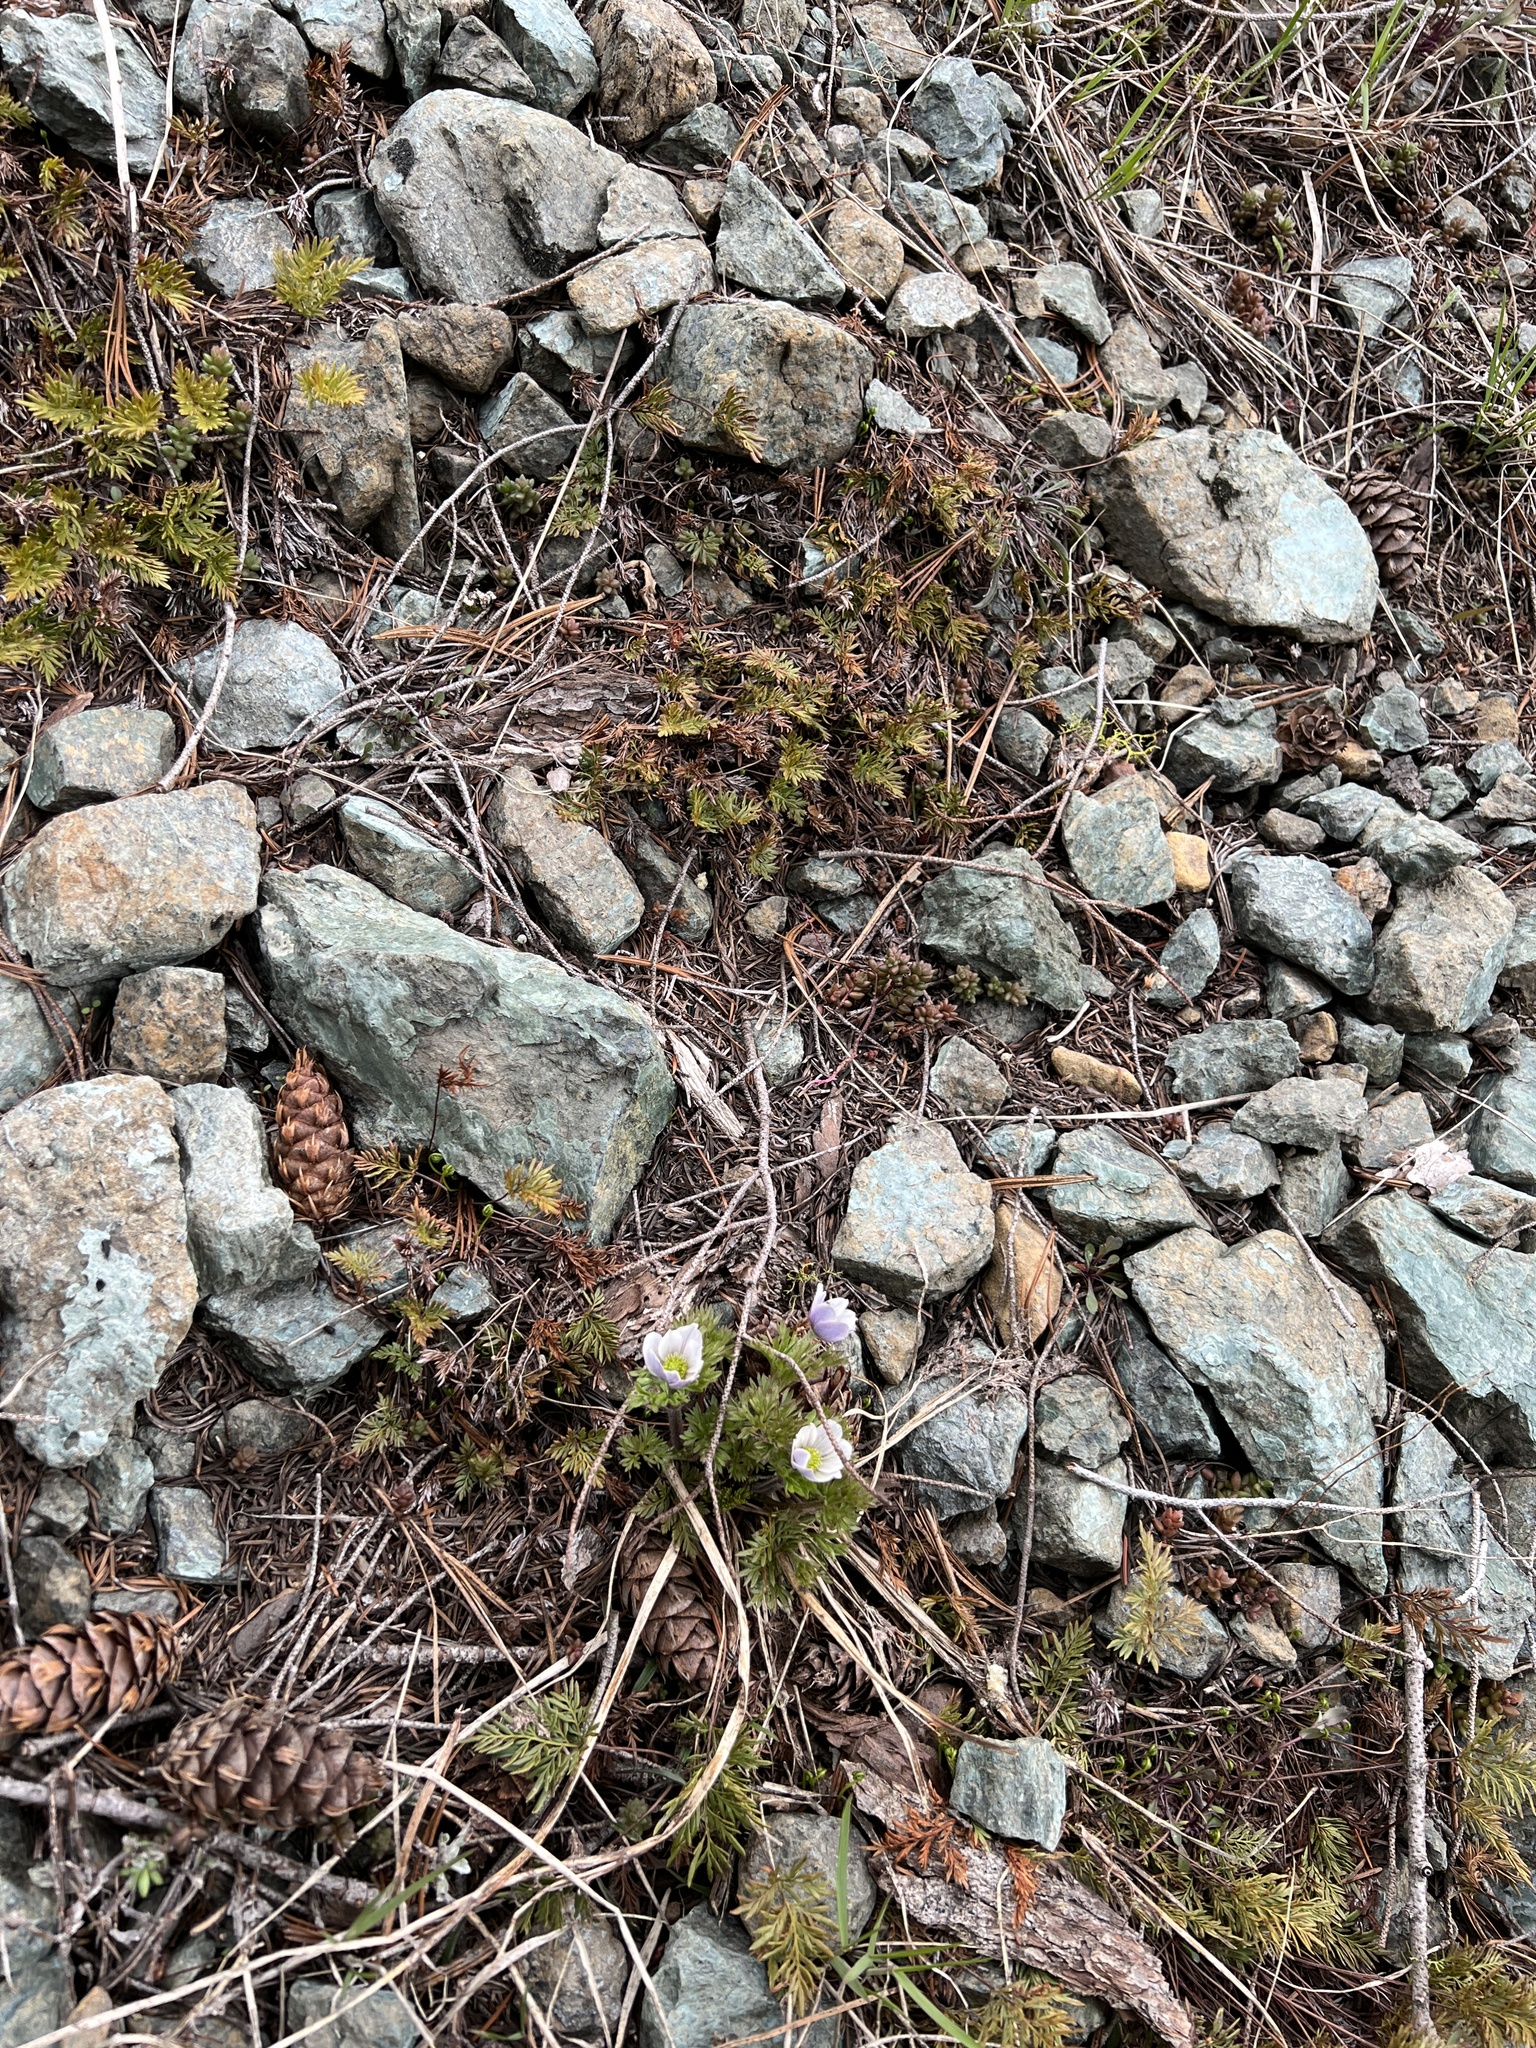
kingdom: Plantae
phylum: Tracheophyta
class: Magnoliopsida
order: Ranunculales
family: Ranunculaceae
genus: Anemone
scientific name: Anemone drummondii
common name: Drummond's anemone
